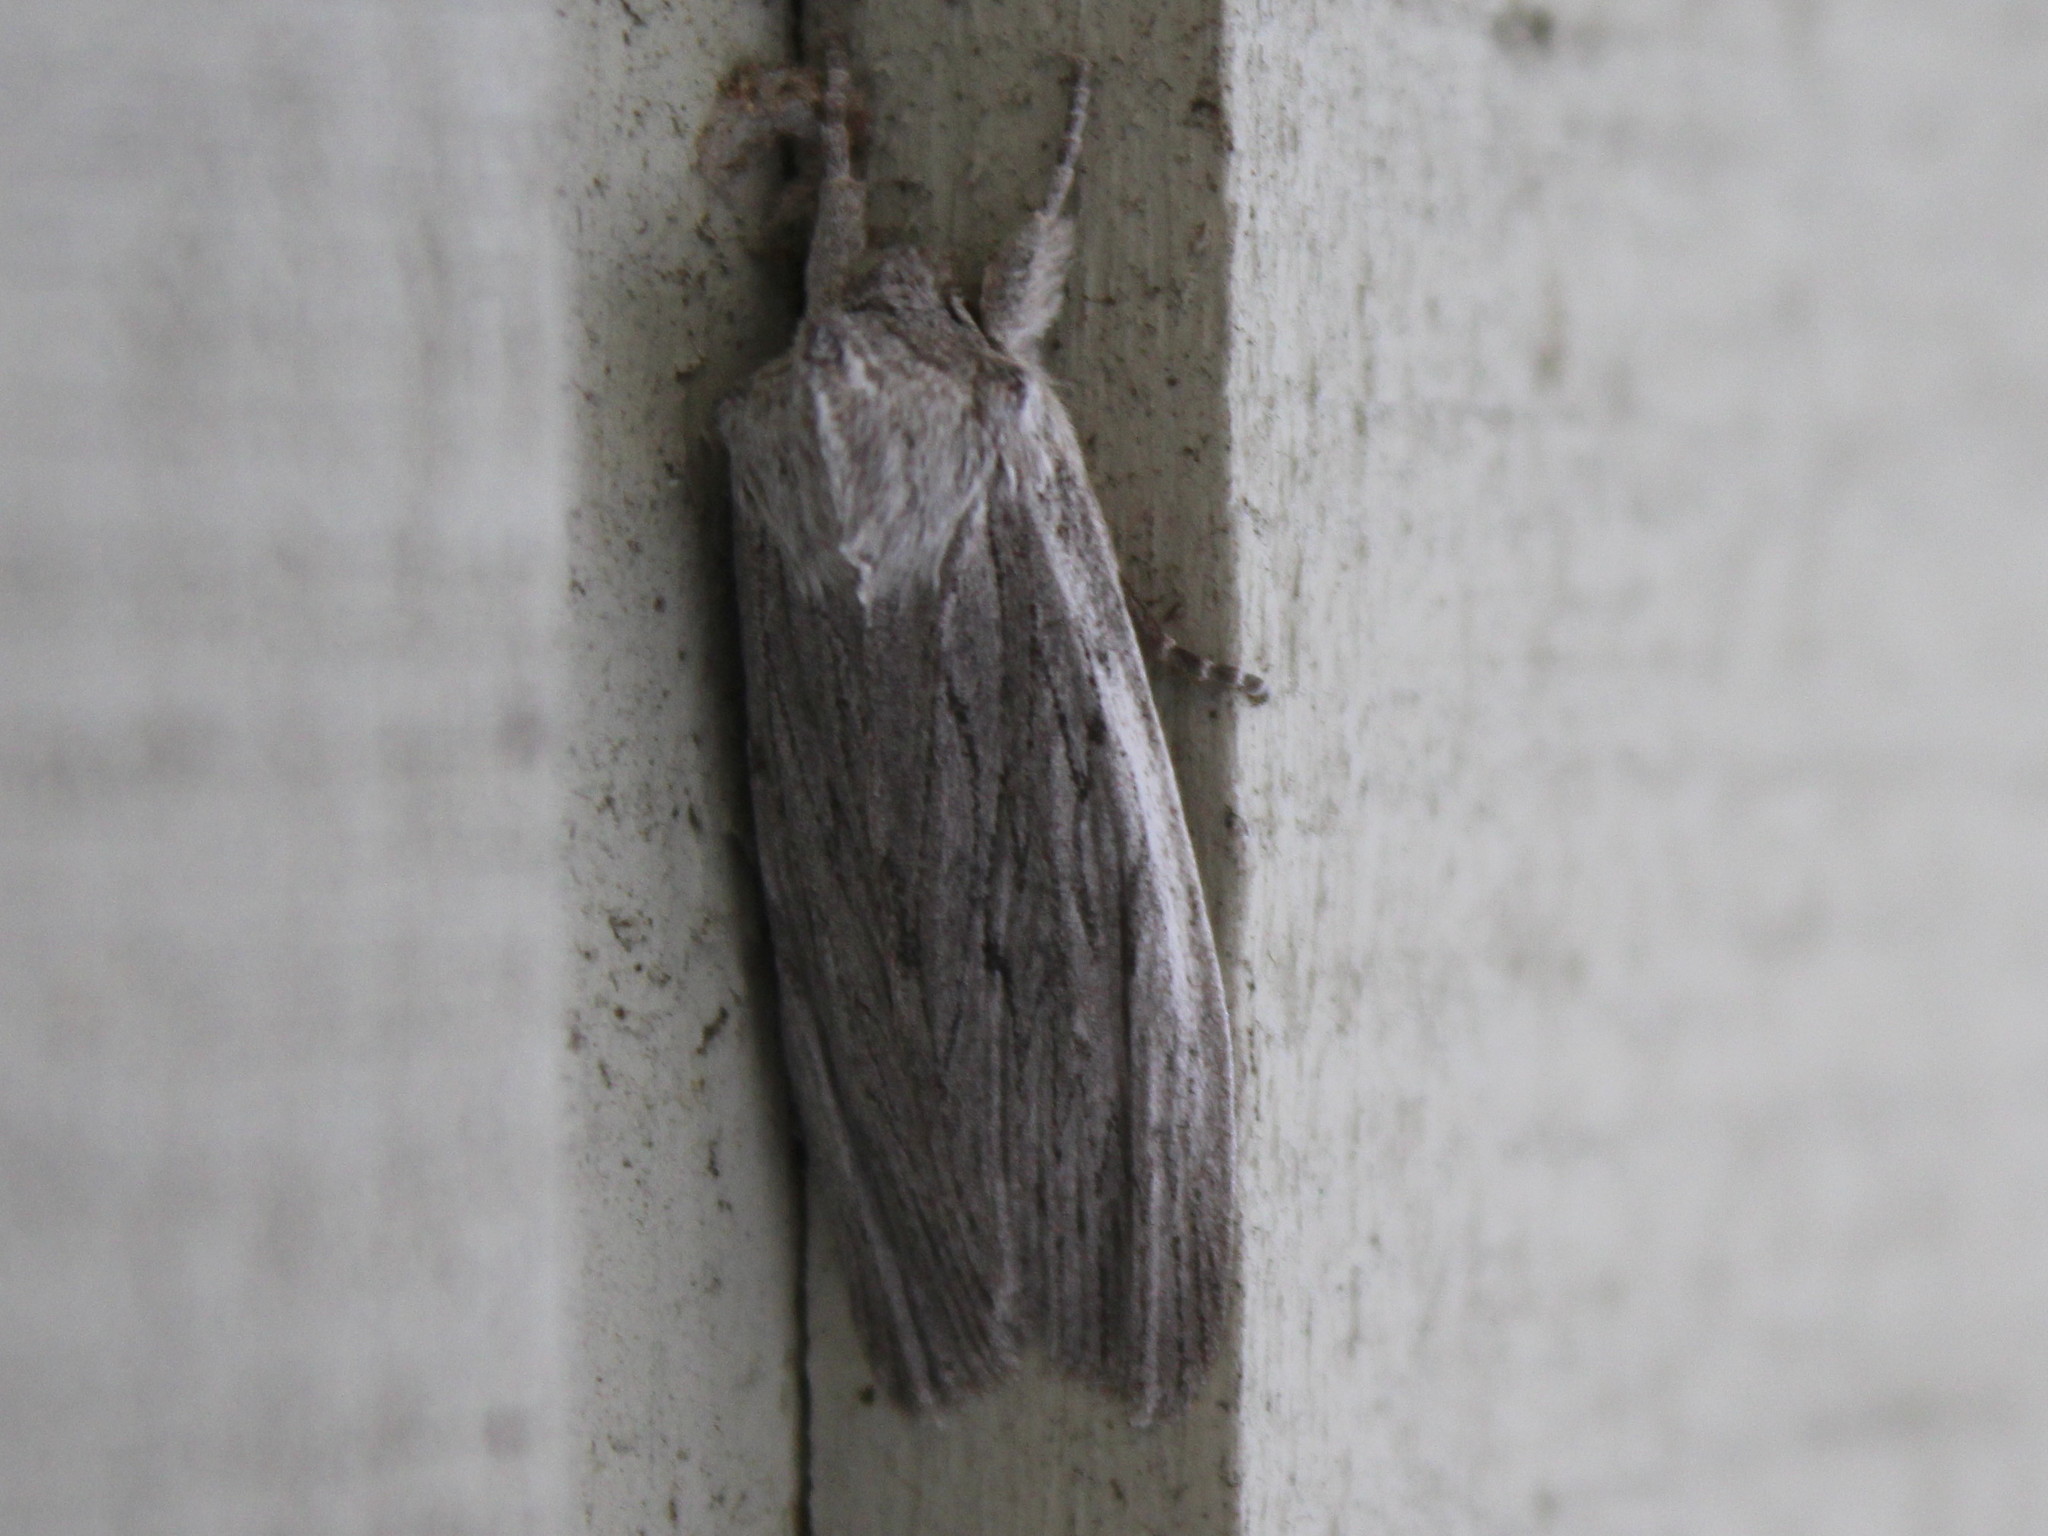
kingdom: Animalia
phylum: Arthropoda
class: Insecta
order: Lepidoptera
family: Noctuidae
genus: Lithophane
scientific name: Lithophane fagina
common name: Hoary pinion moth
